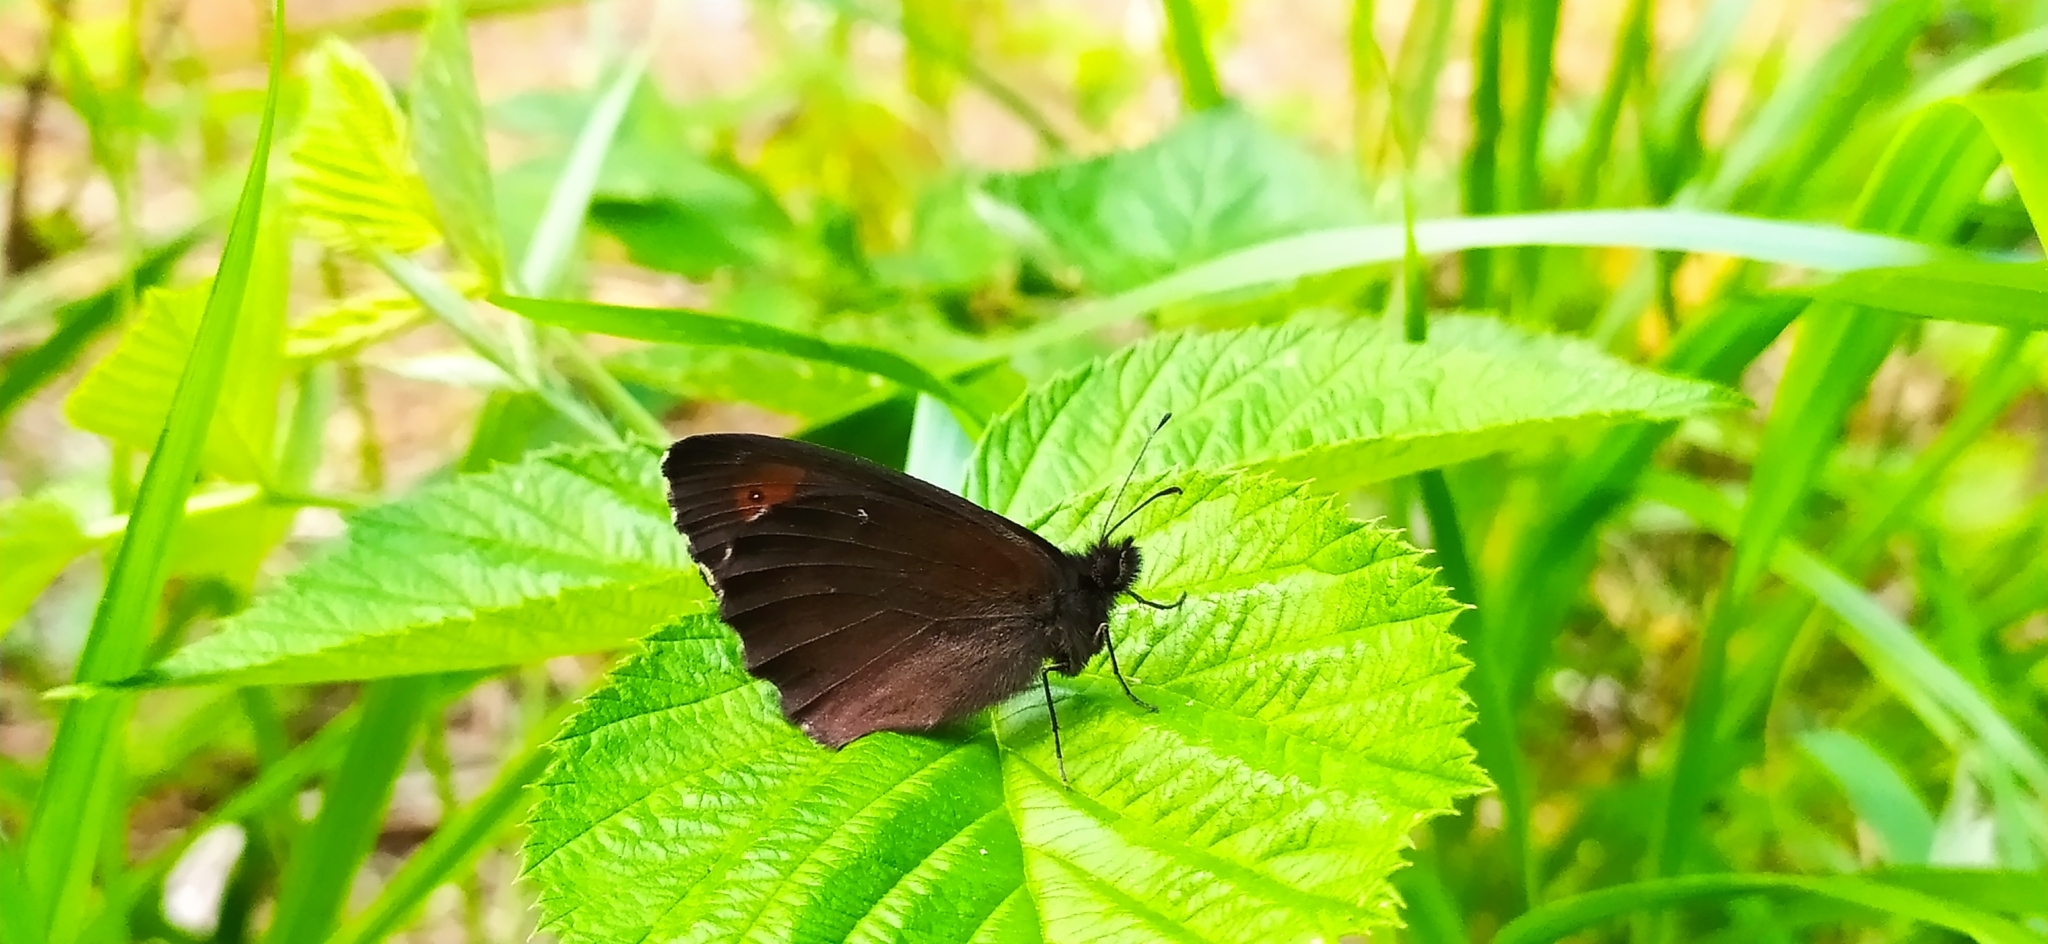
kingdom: Animalia
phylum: Arthropoda
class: Insecta
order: Lepidoptera
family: Nymphalidae
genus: Erebia
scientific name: Erebia ligea
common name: Arran brown
